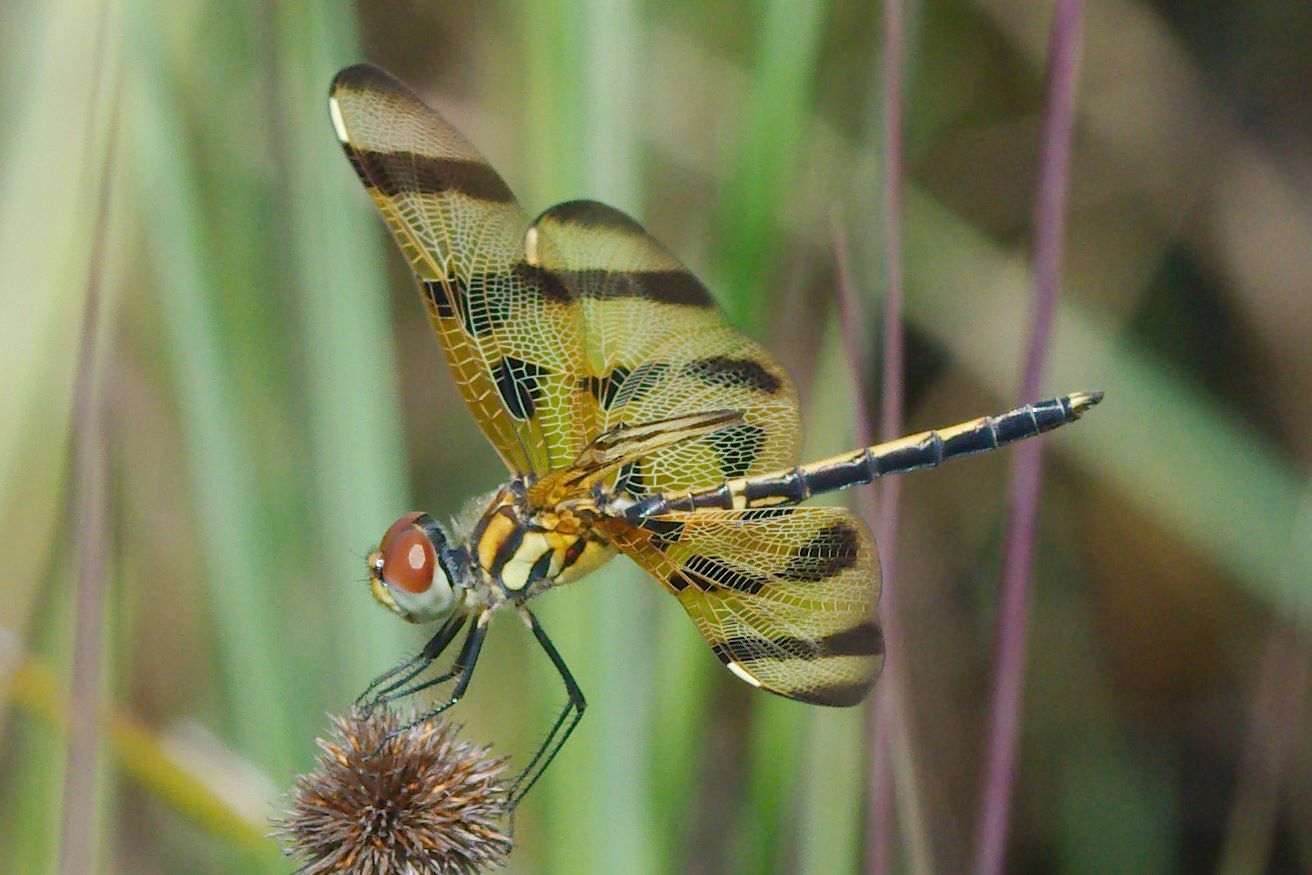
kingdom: Animalia
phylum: Arthropoda
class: Insecta
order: Odonata
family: Libellulidae
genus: Celithemis
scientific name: Celithemis eponina
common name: Halloween pennant
